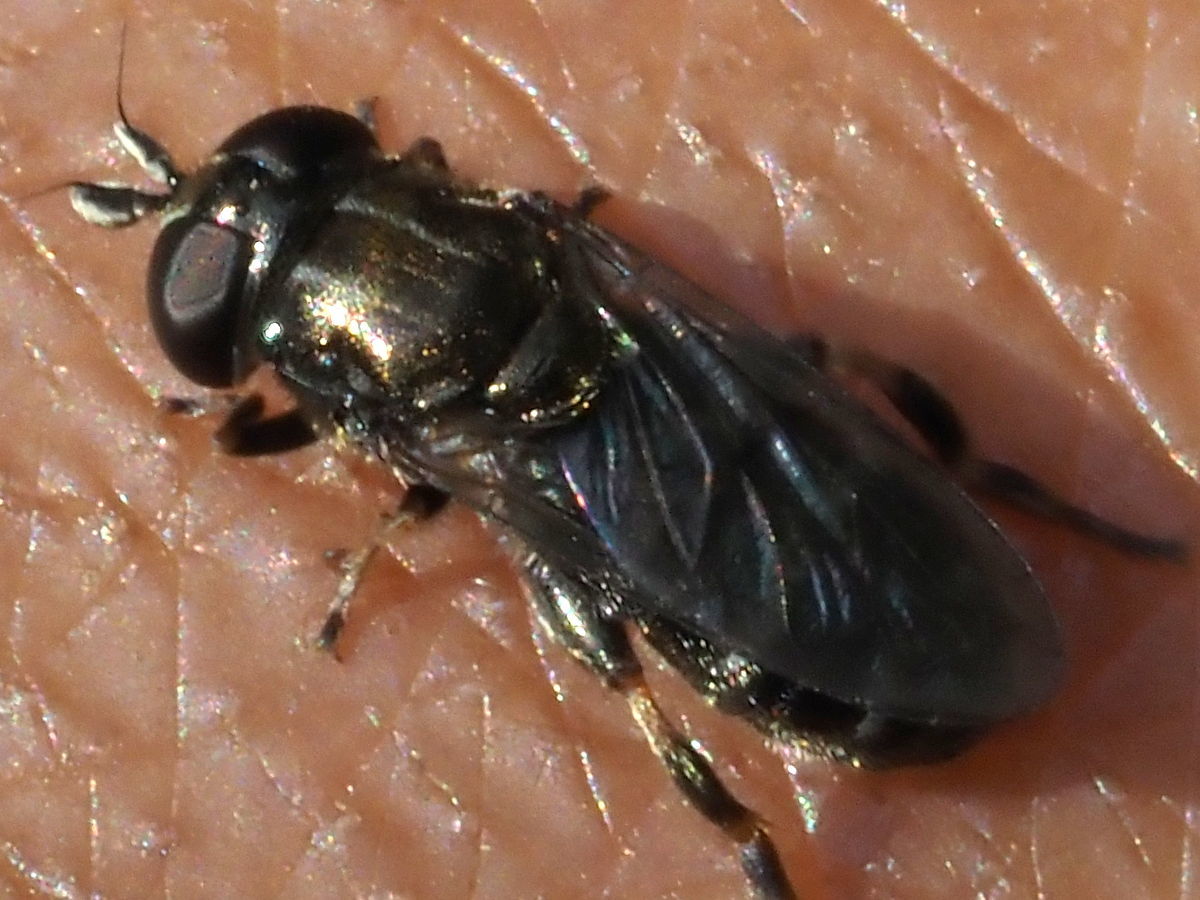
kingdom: Animalia
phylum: Arthropoda
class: Insecta
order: Diptera
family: Syrphidae
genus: Eumerus
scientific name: Eumerus
